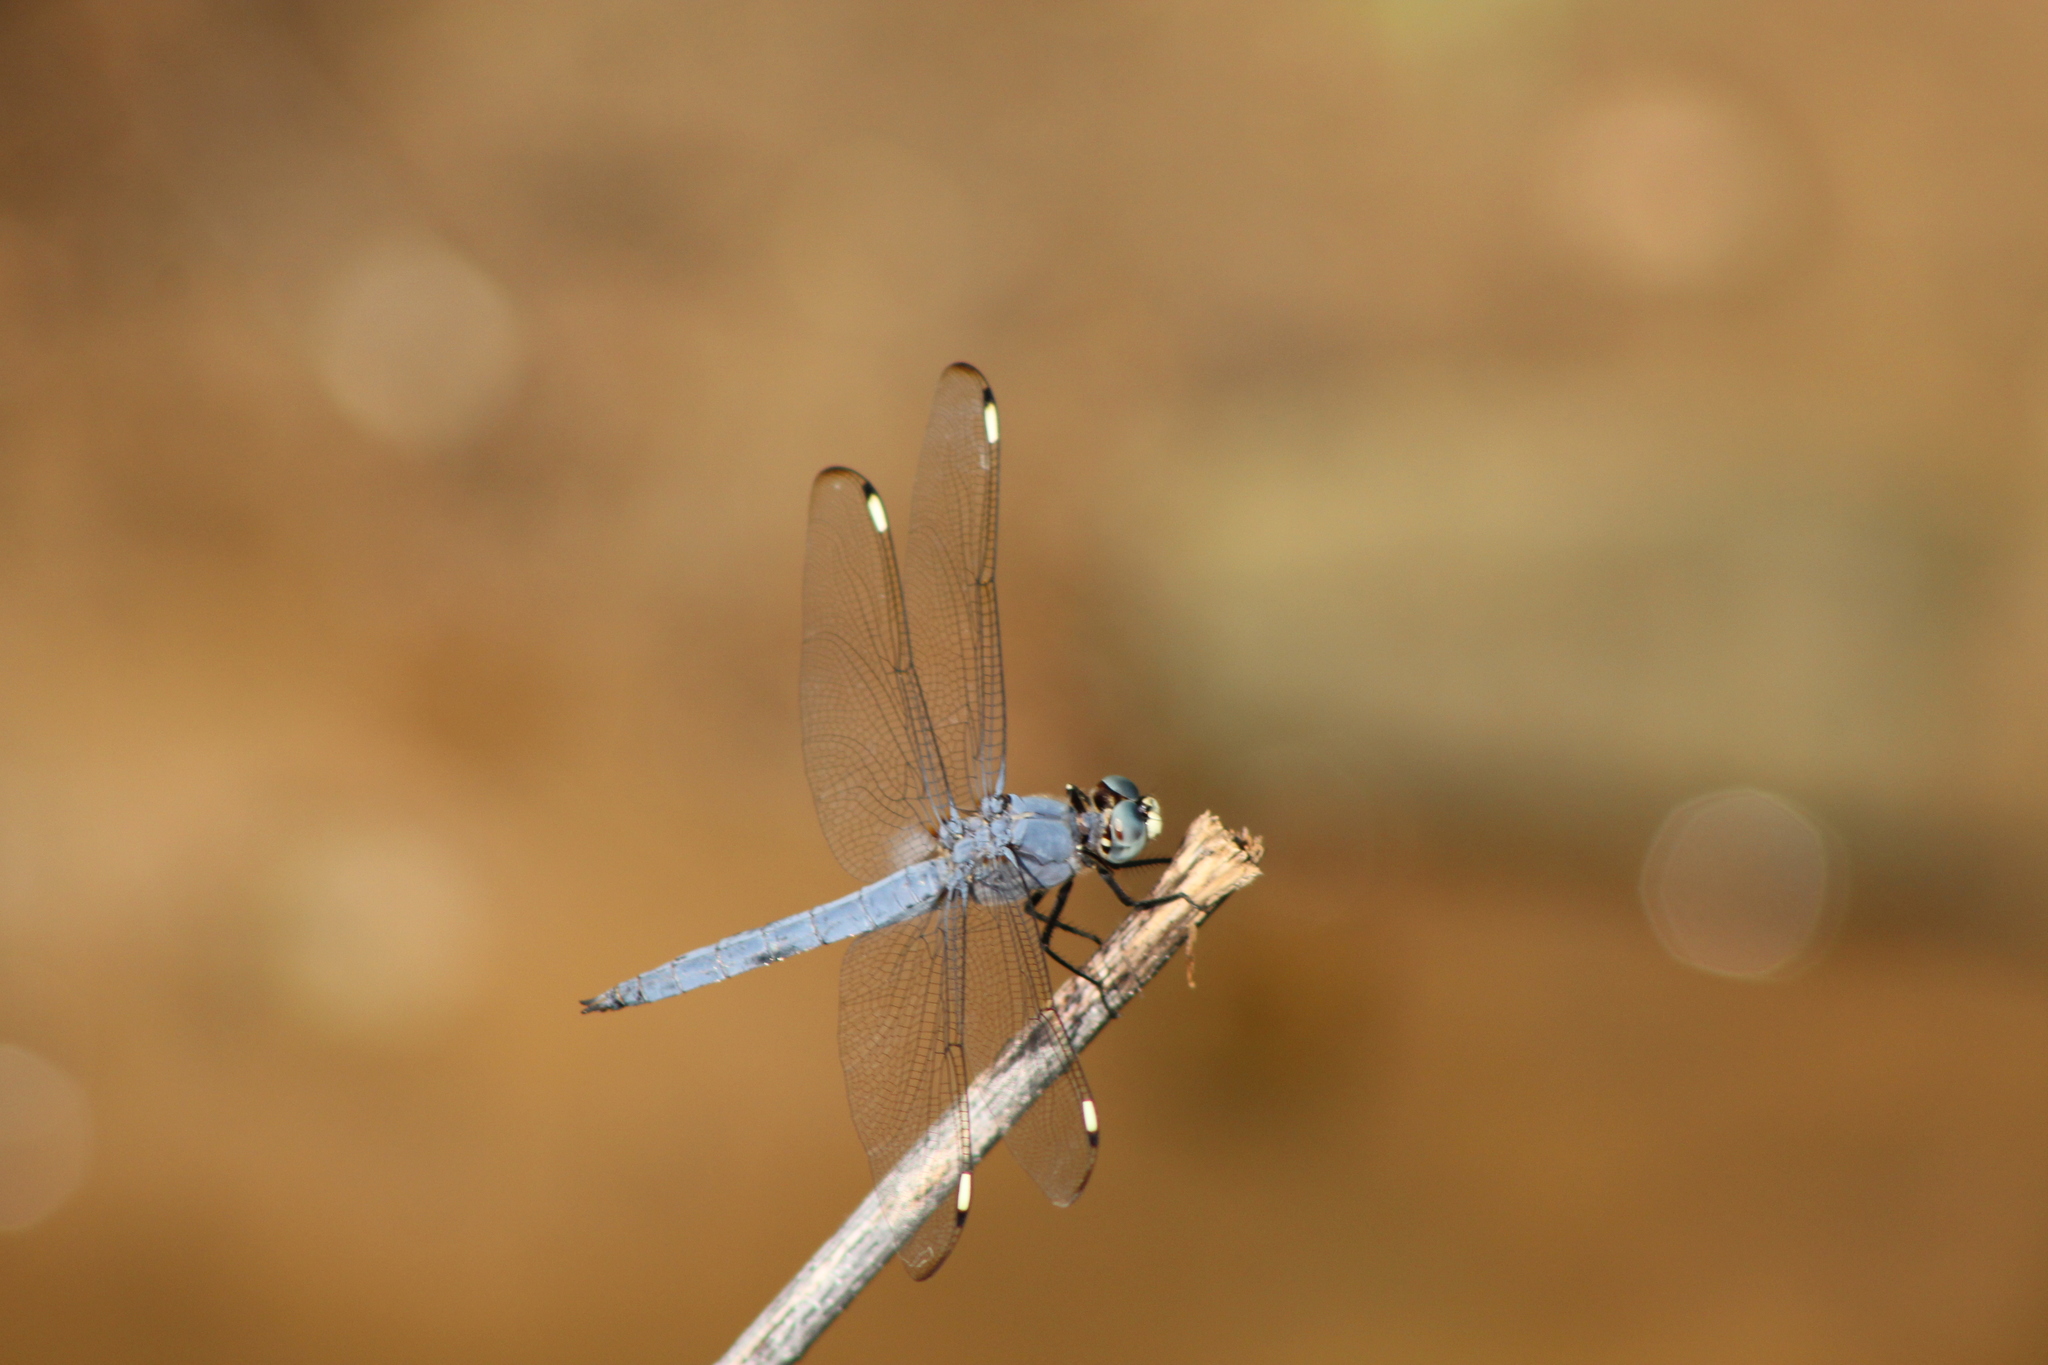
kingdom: Animalia
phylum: Arthropoda
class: Insecta
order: Odonata
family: Libellulidae
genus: Libellula
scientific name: Libellula comanche
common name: Comanche skimmer
